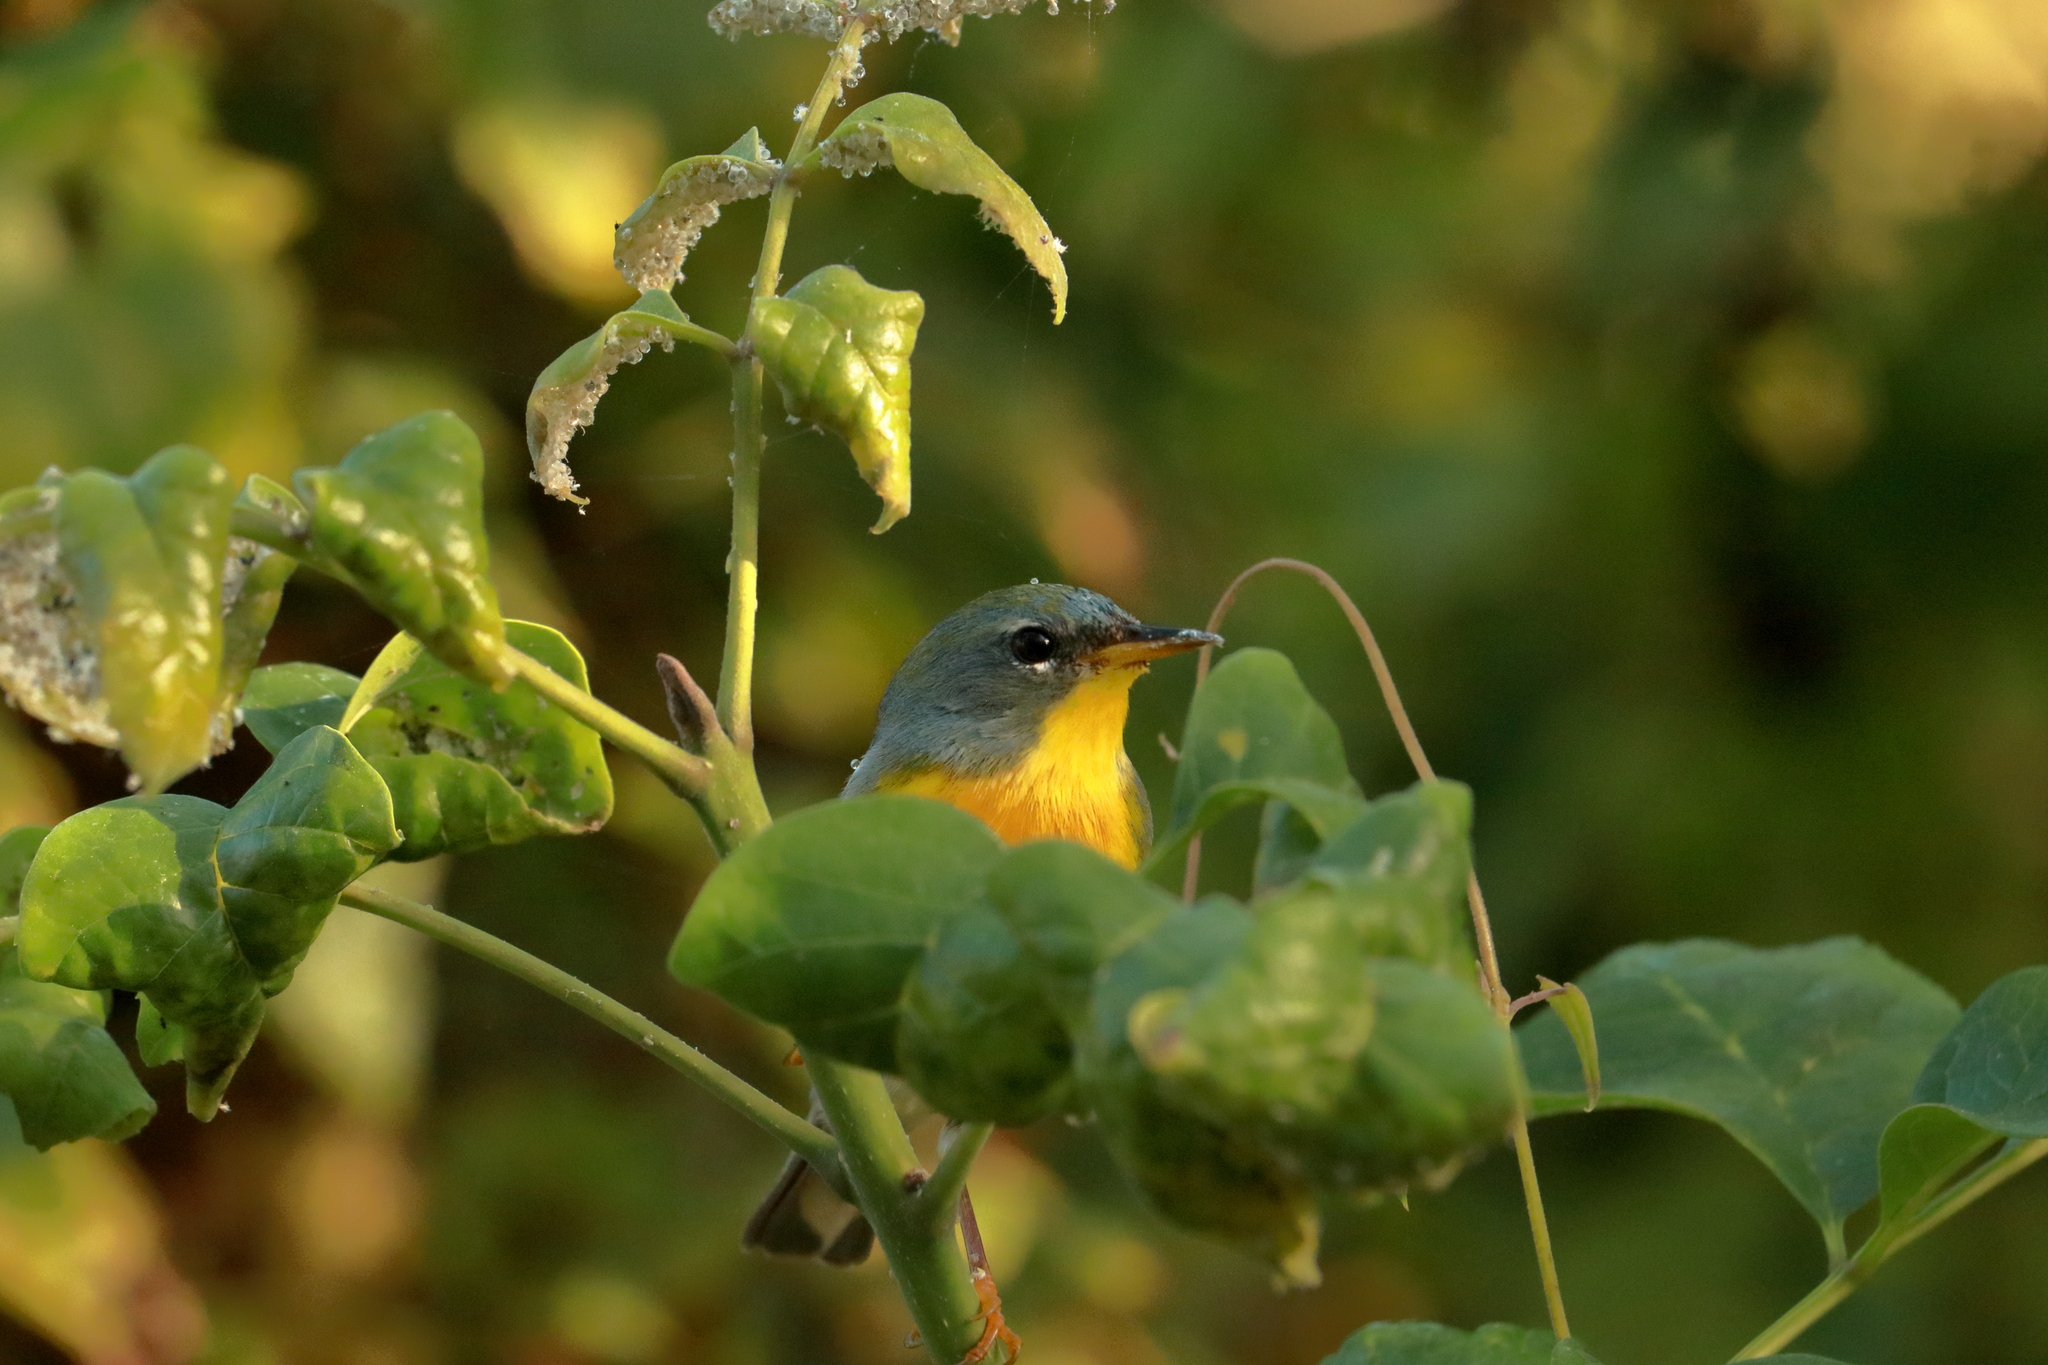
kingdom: Animalia
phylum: Chordata
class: Aves
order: Passeriformes
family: Parulidae
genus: Setophaga
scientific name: Setophaga americana
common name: Northern parula
